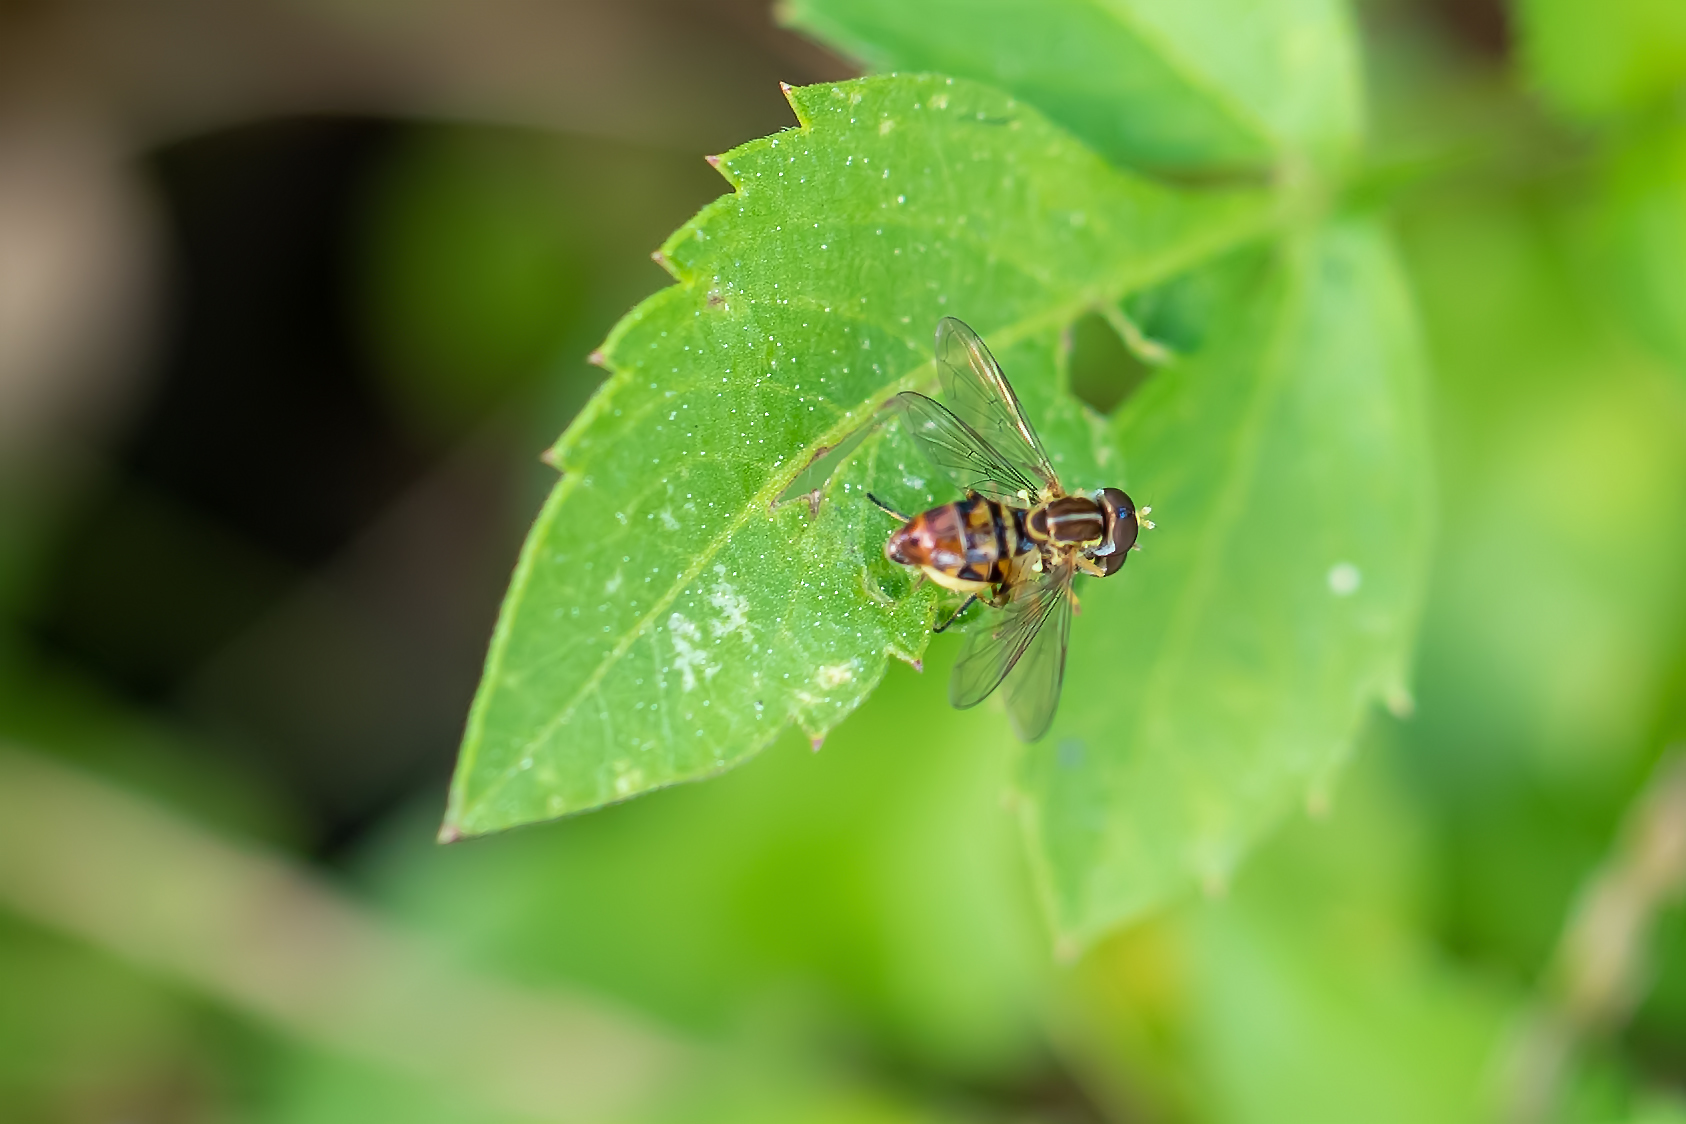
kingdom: Animalia
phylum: Arthropoda
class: Insecta
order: Diptera
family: Syrphidae
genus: Toxomerus
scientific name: Toxomerus floralis
